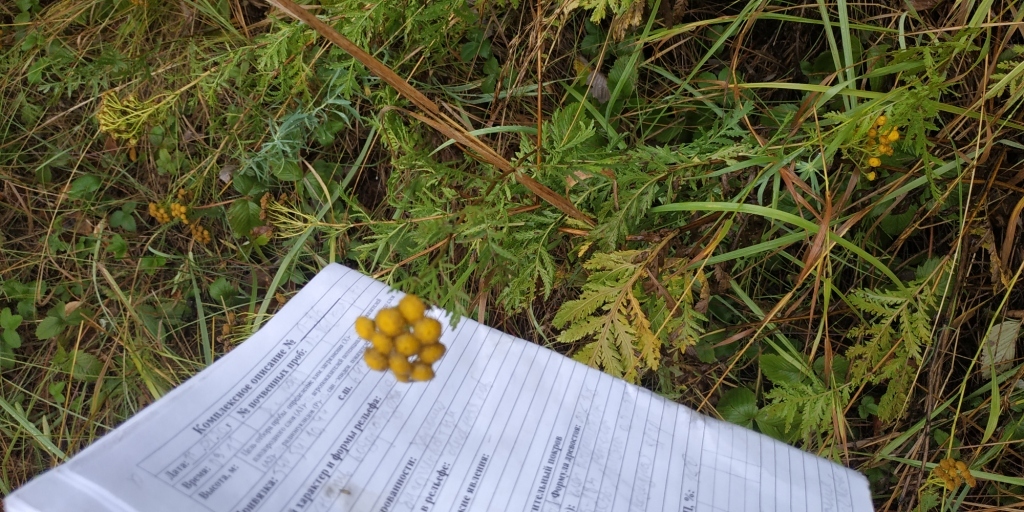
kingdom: Plantae
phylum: Tracheophyta
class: Magnoliopsida
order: Asterales
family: Asteraceae
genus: Tanacetum
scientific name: Tanacetum vulgare
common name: Common tansy
